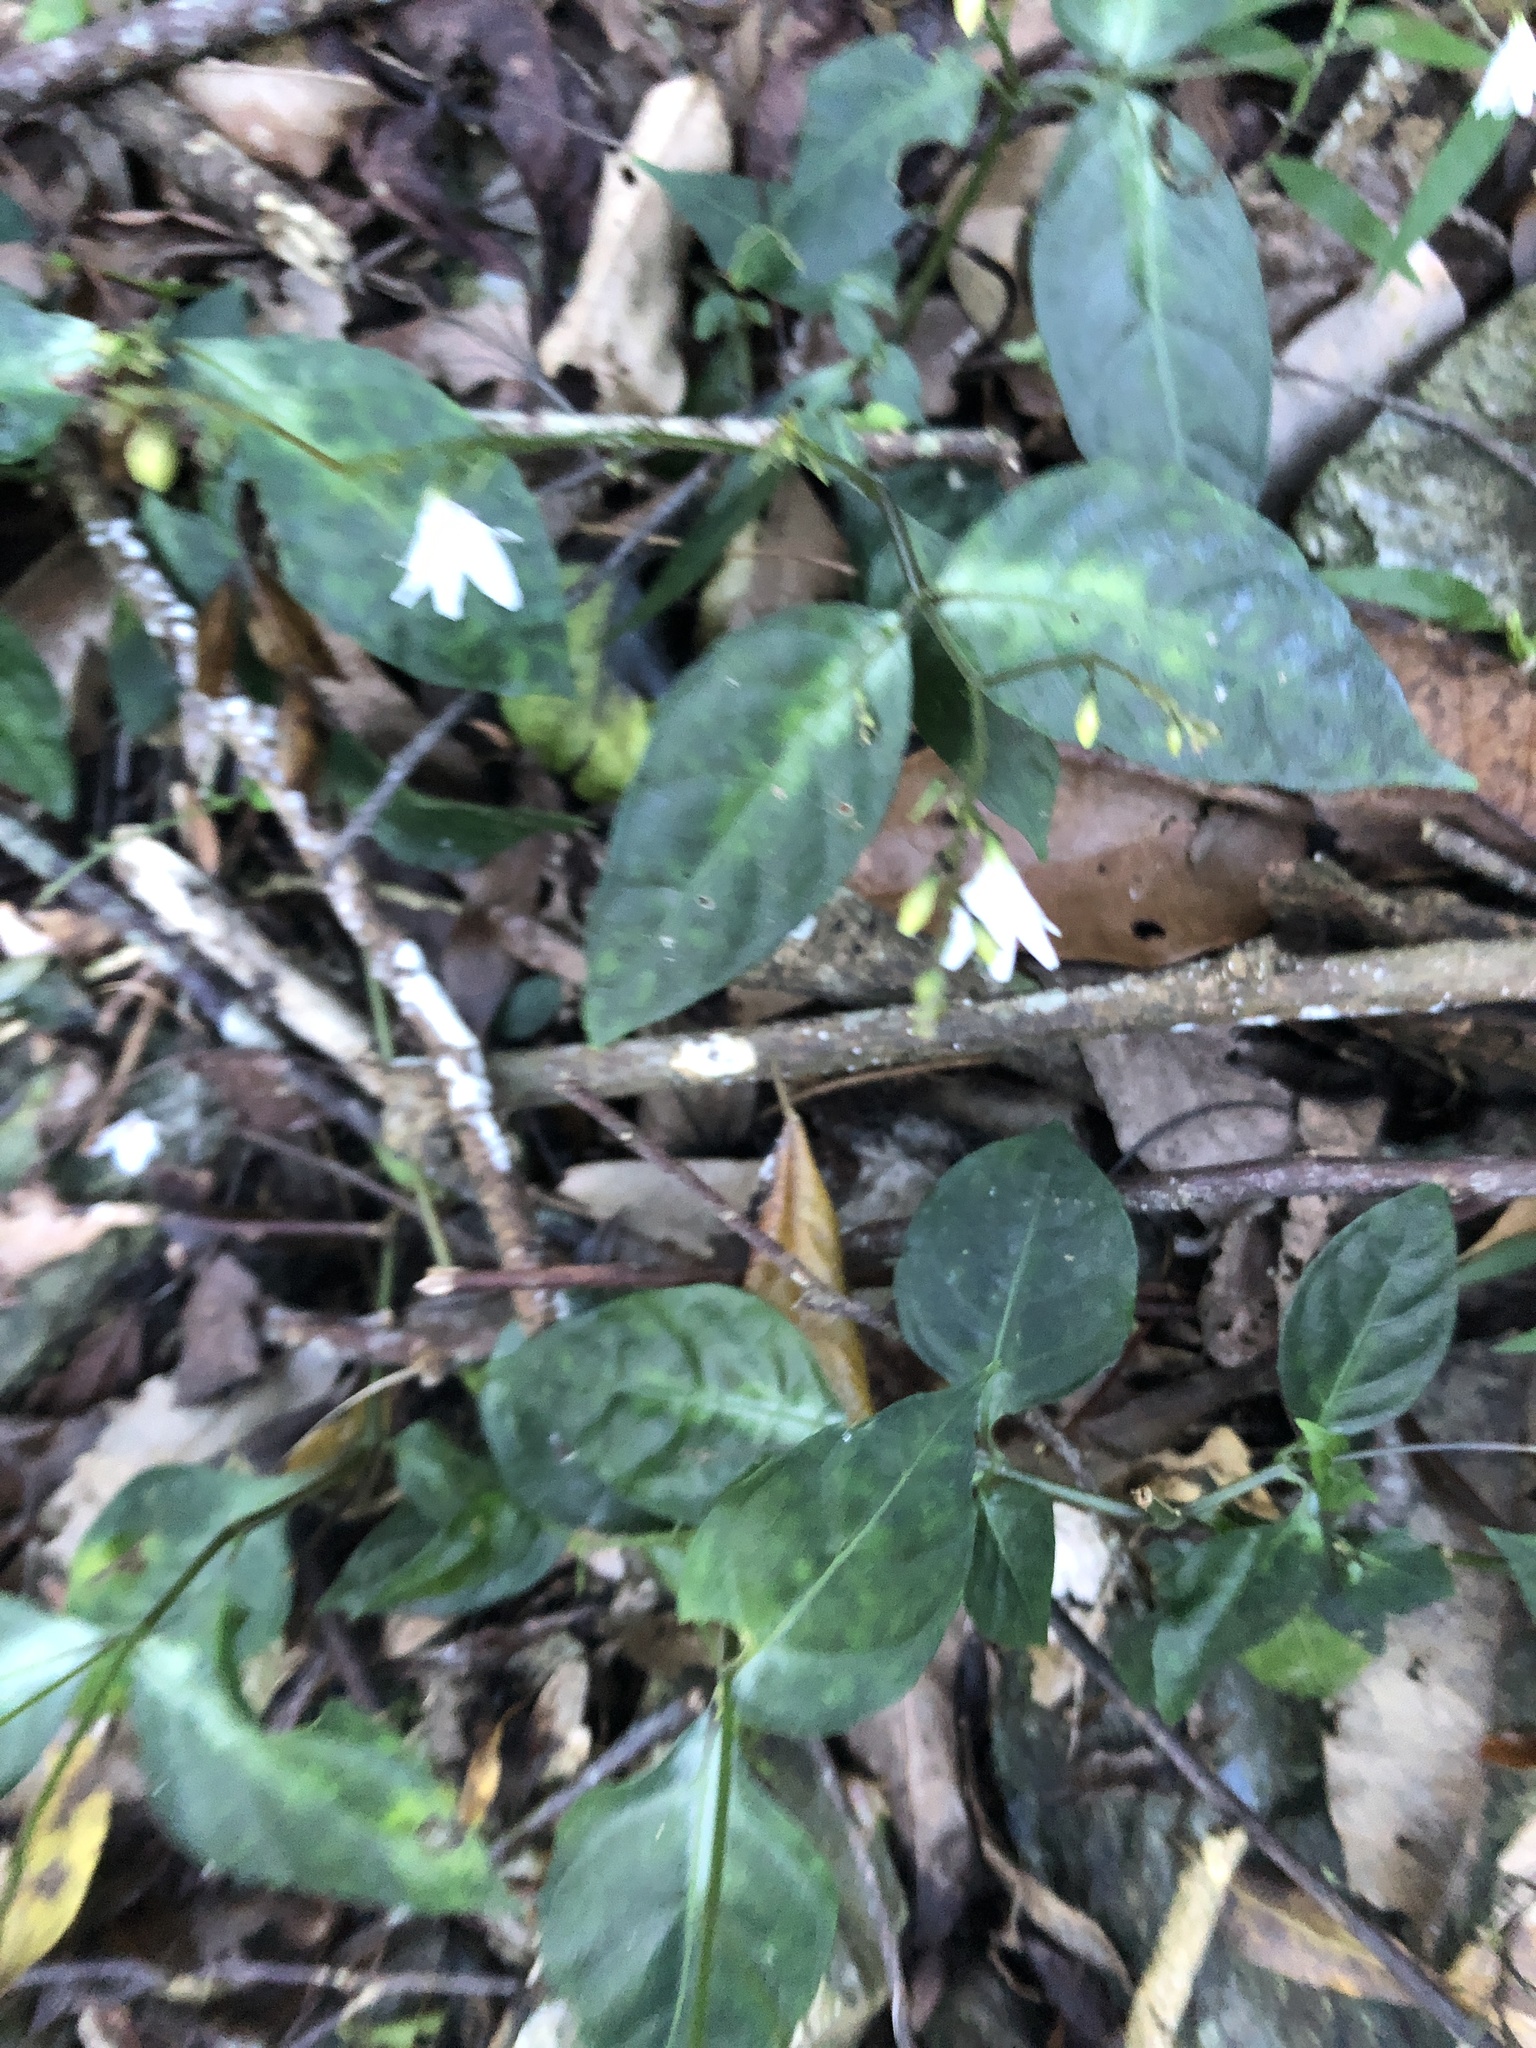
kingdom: Plantae
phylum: Tracheophyta
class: Magnoliopsida
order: Lamiales
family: Acanthaceae
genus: Codonacanthus
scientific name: Codonacanthus pauciflorus
